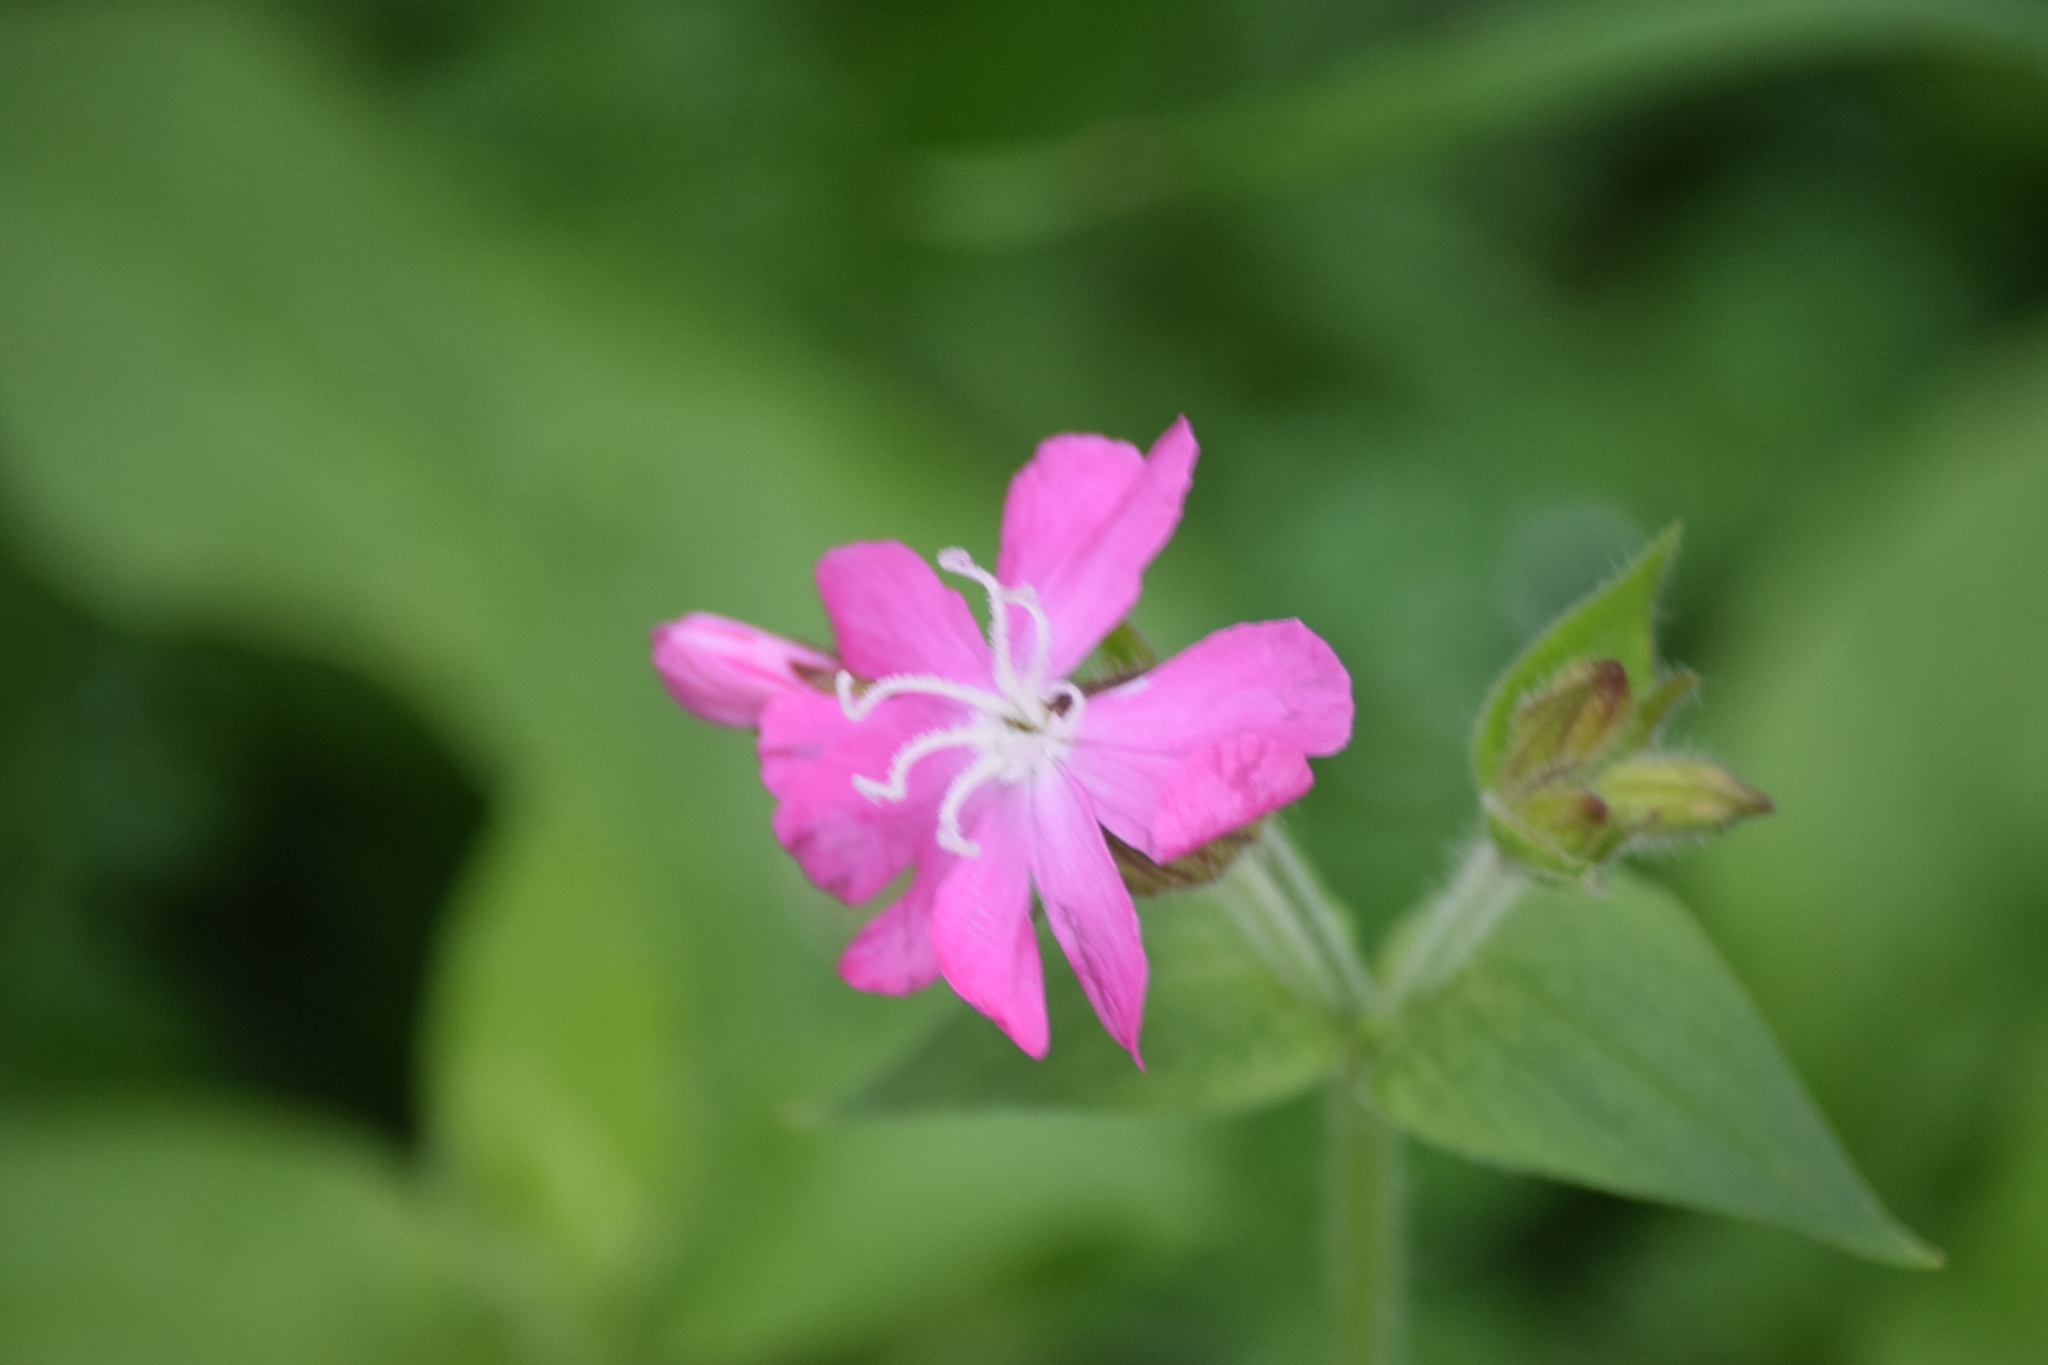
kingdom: Plantae
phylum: Tracheophyta
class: Magnoliopsida
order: Caryophyllales
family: Caryophyllaceae
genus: Silene
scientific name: Silene dioica
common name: Red campion
